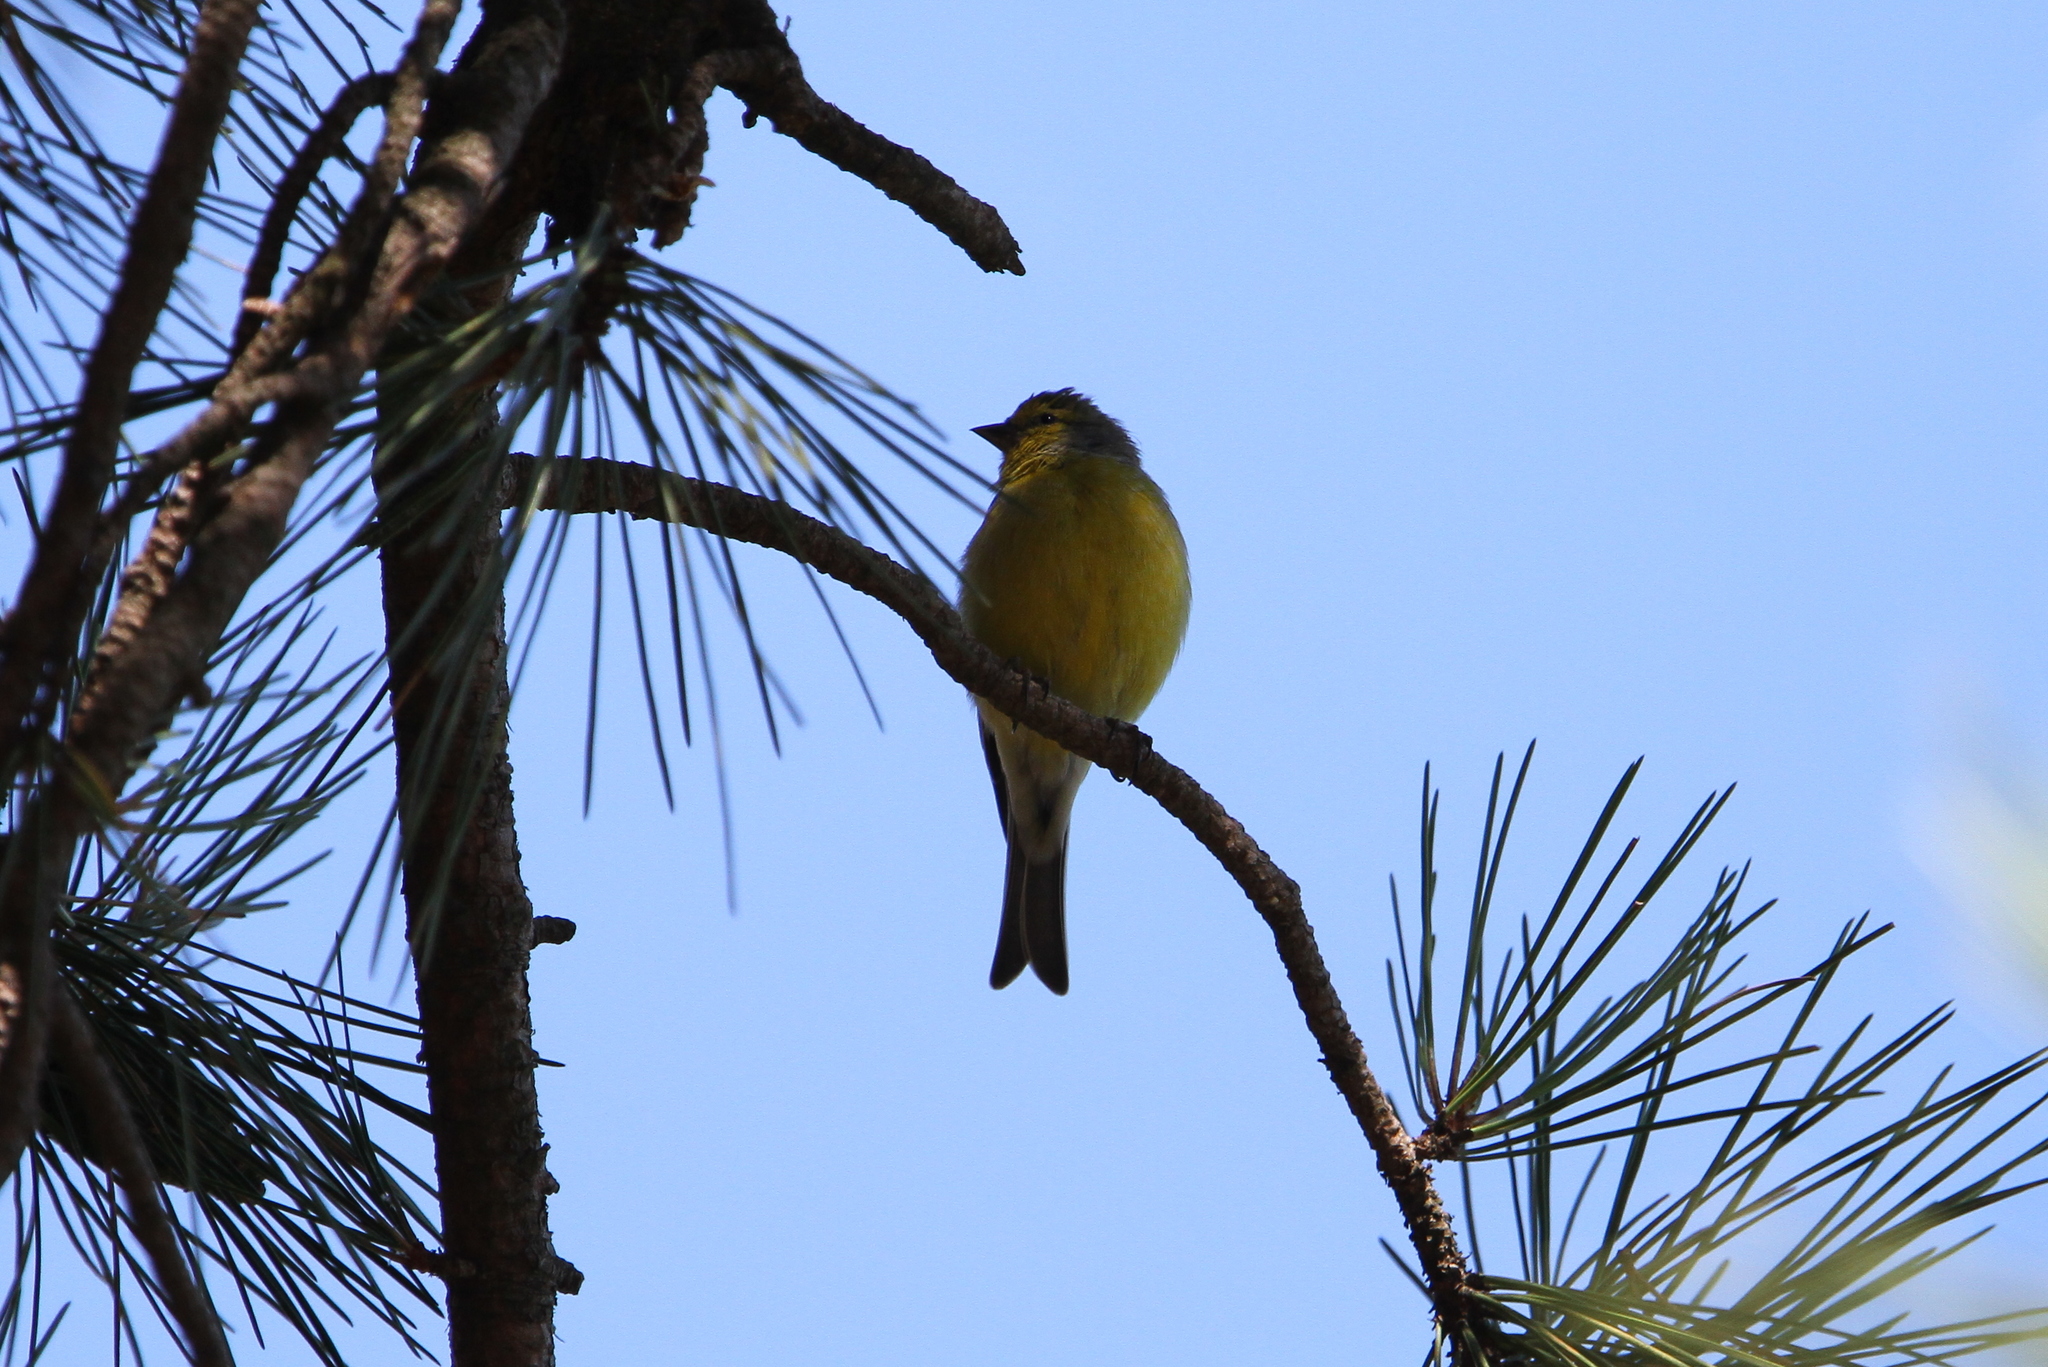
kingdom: Animalia
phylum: Chordata
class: Aves
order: Passeriformes
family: Fringillidae
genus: Carduelis
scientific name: Carduelis corsicana
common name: Corsican finch
